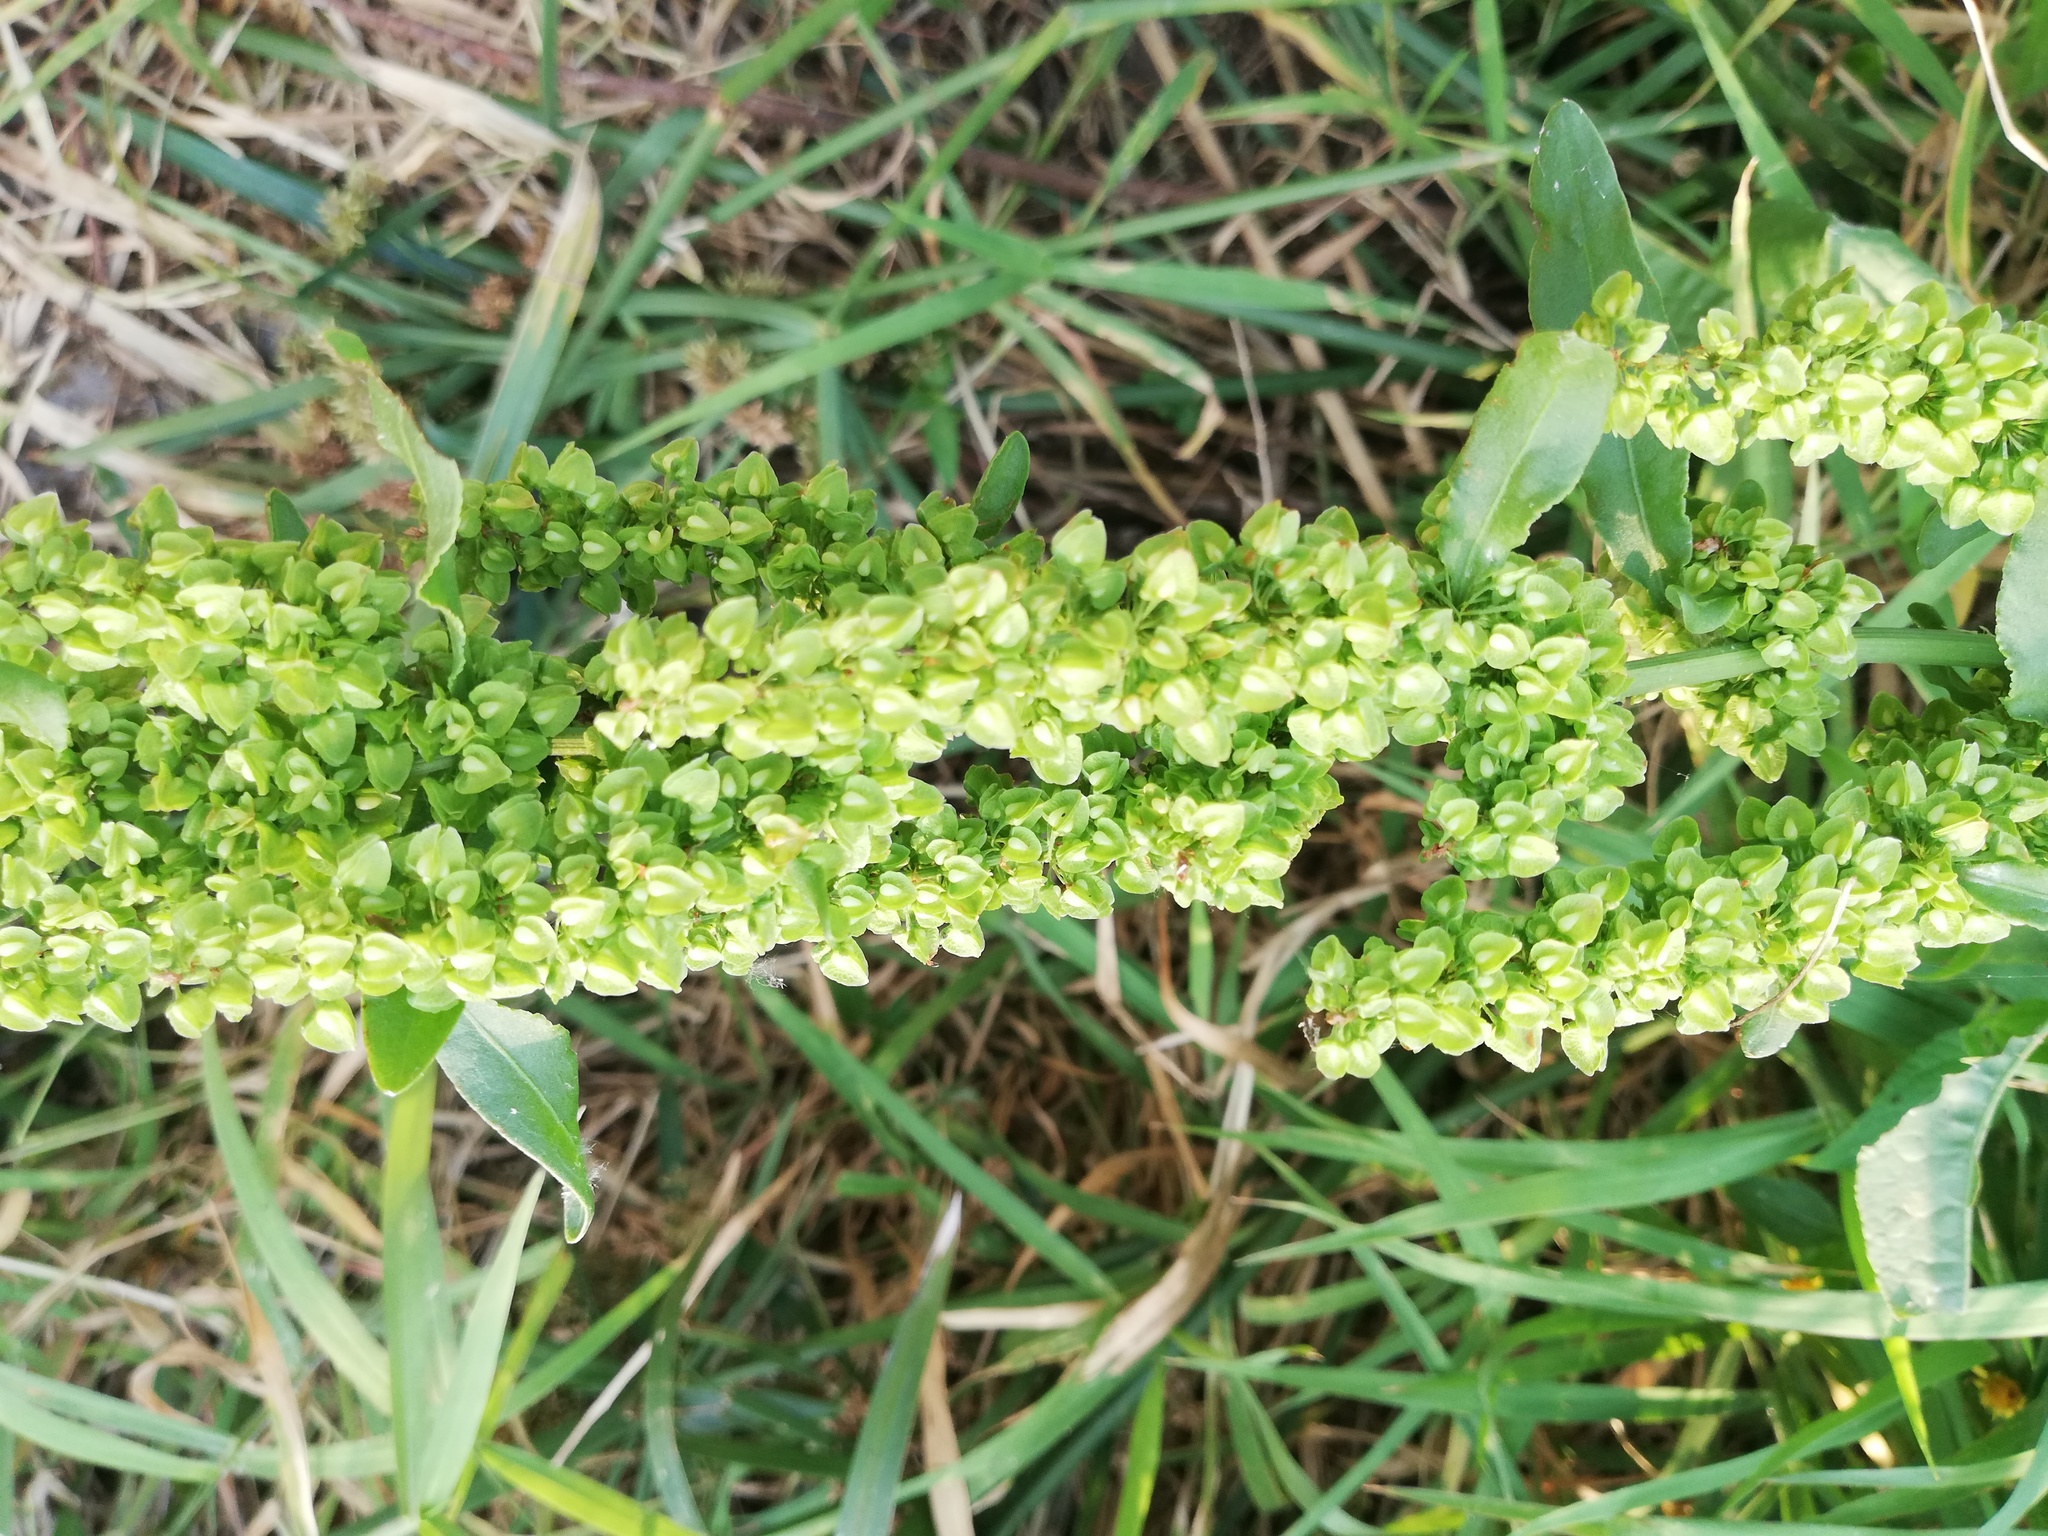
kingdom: Plantae
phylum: Tracheophyta
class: Magnoliopsida
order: Caryophyllales
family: Polygonaceae
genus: Rumex
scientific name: Rumex crispus
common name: Curled dock
